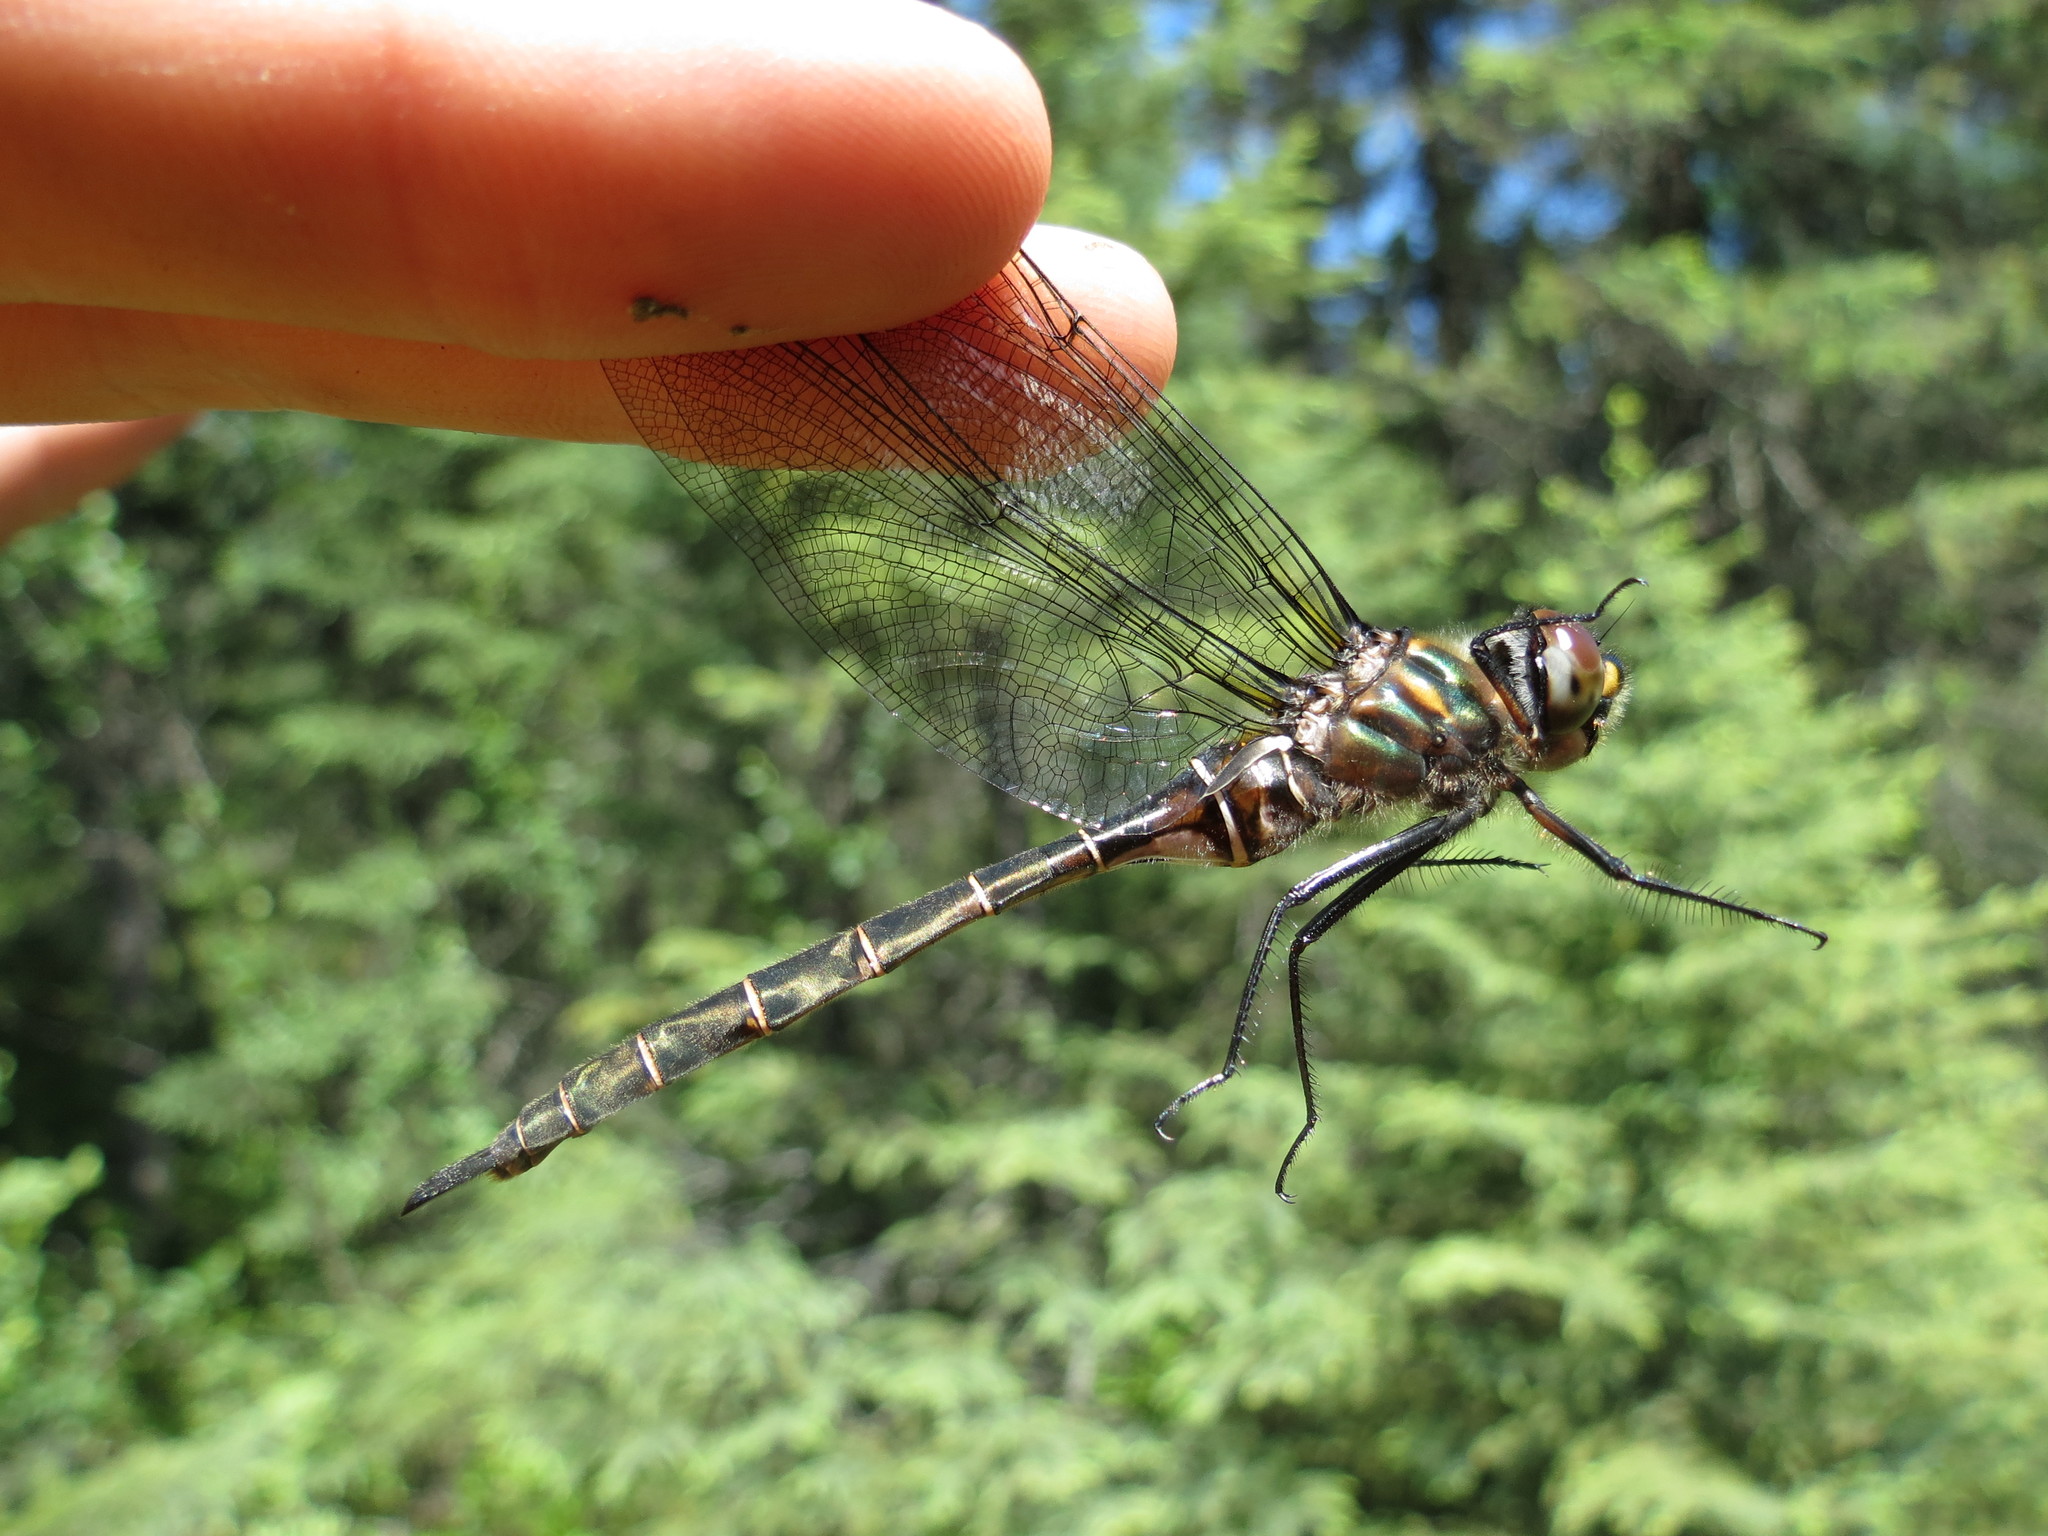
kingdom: Animalia
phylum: Arthropoda
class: Insecta
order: Odonata
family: Corduliidae
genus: Somatochlora
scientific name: Somatochlora cingulata
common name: Lake emerald
